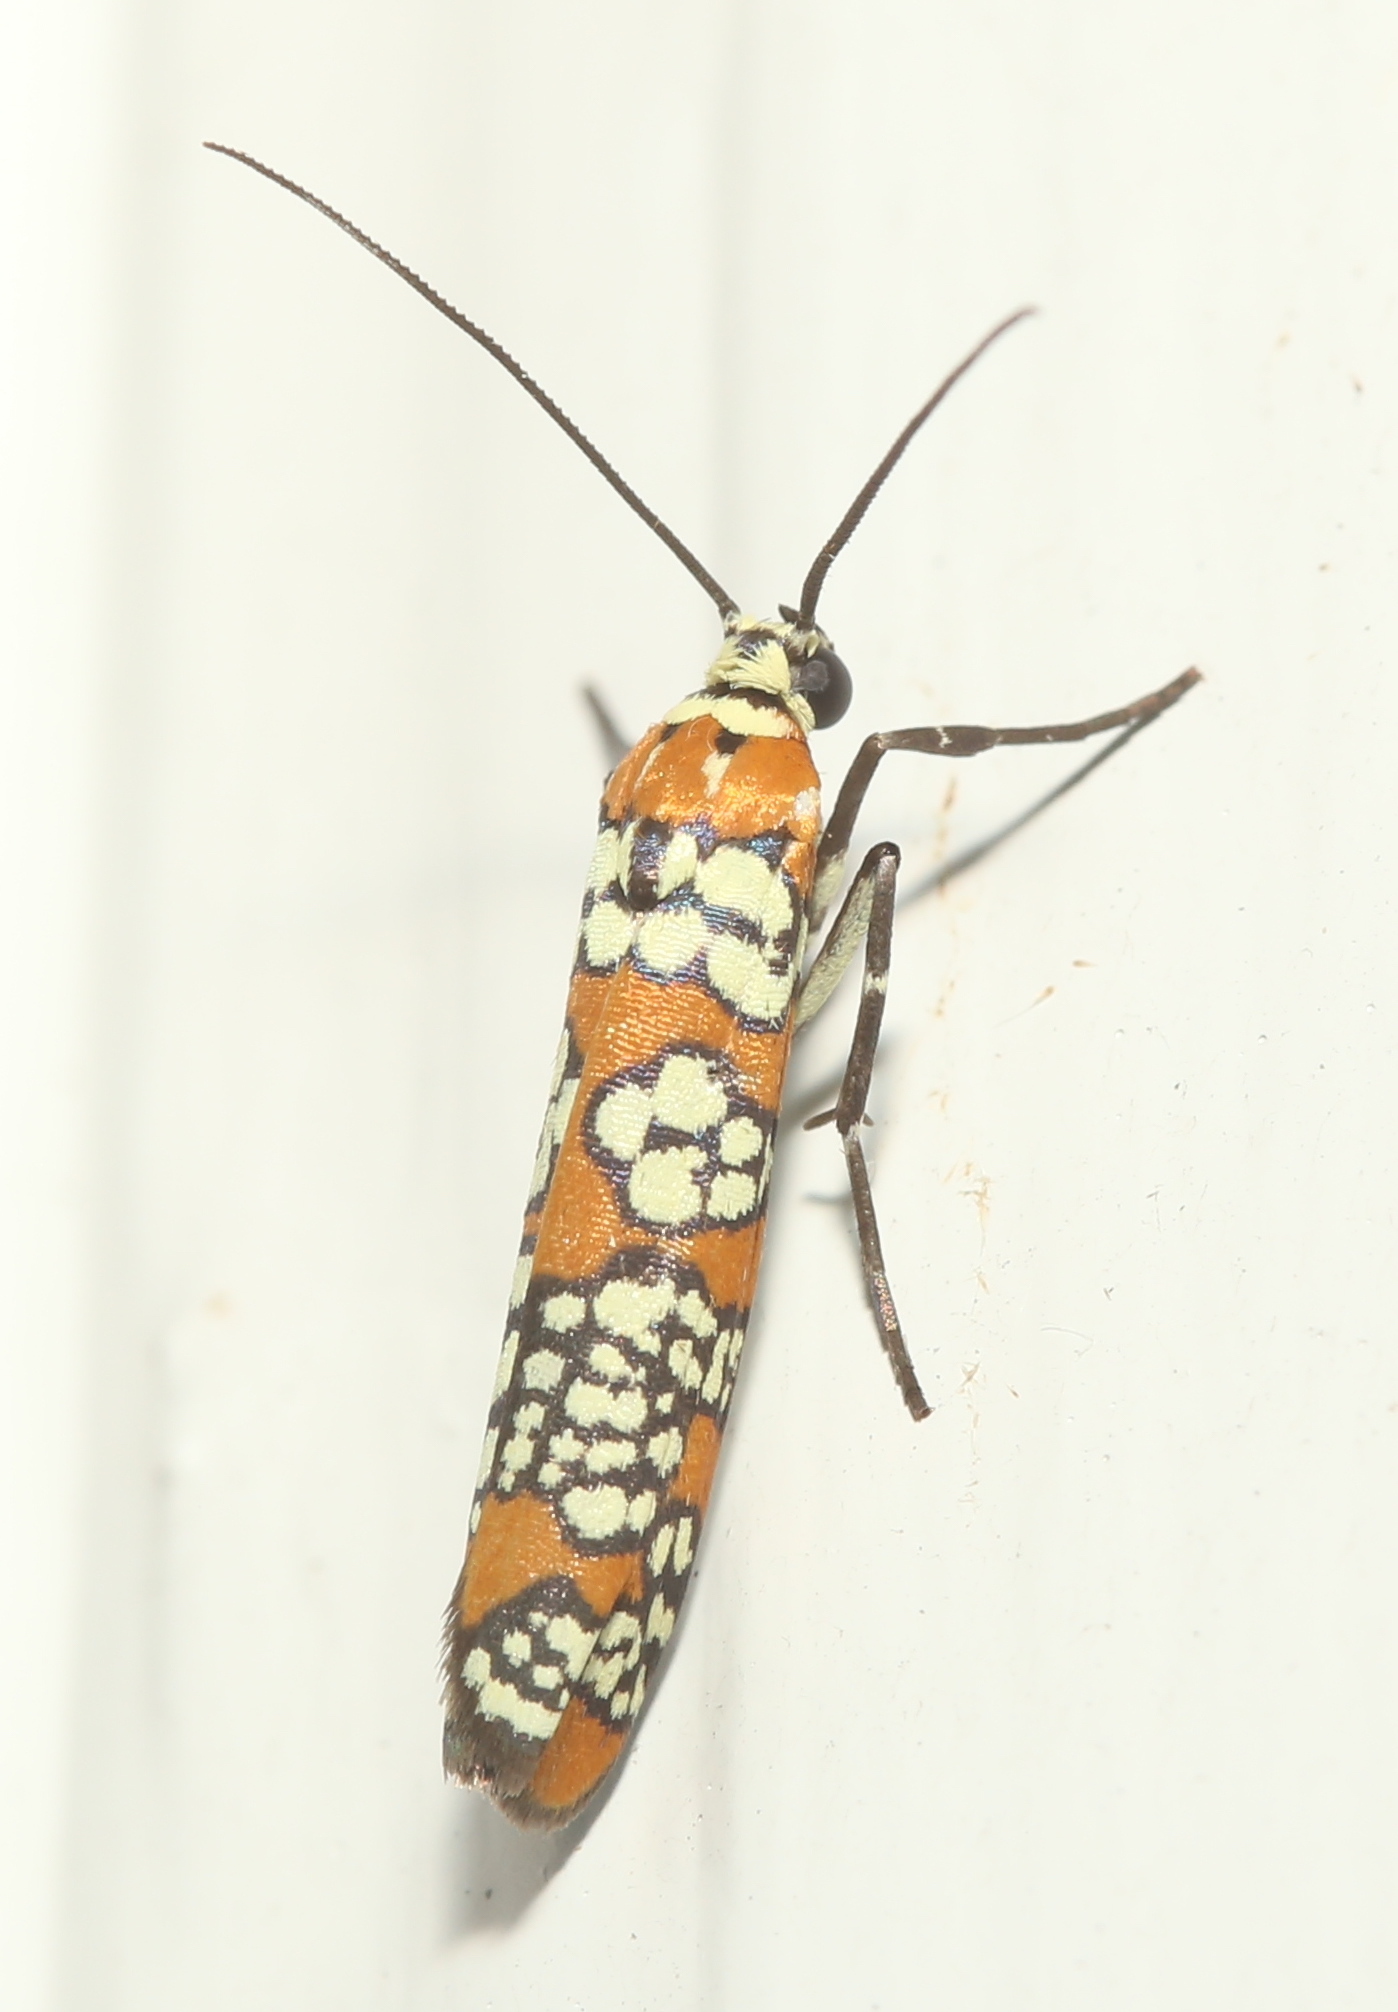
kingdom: Animalia
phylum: Arthropoda
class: Insecta
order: Lepidoptera
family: Attevidae
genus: Atteva
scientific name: Atteva punctella
